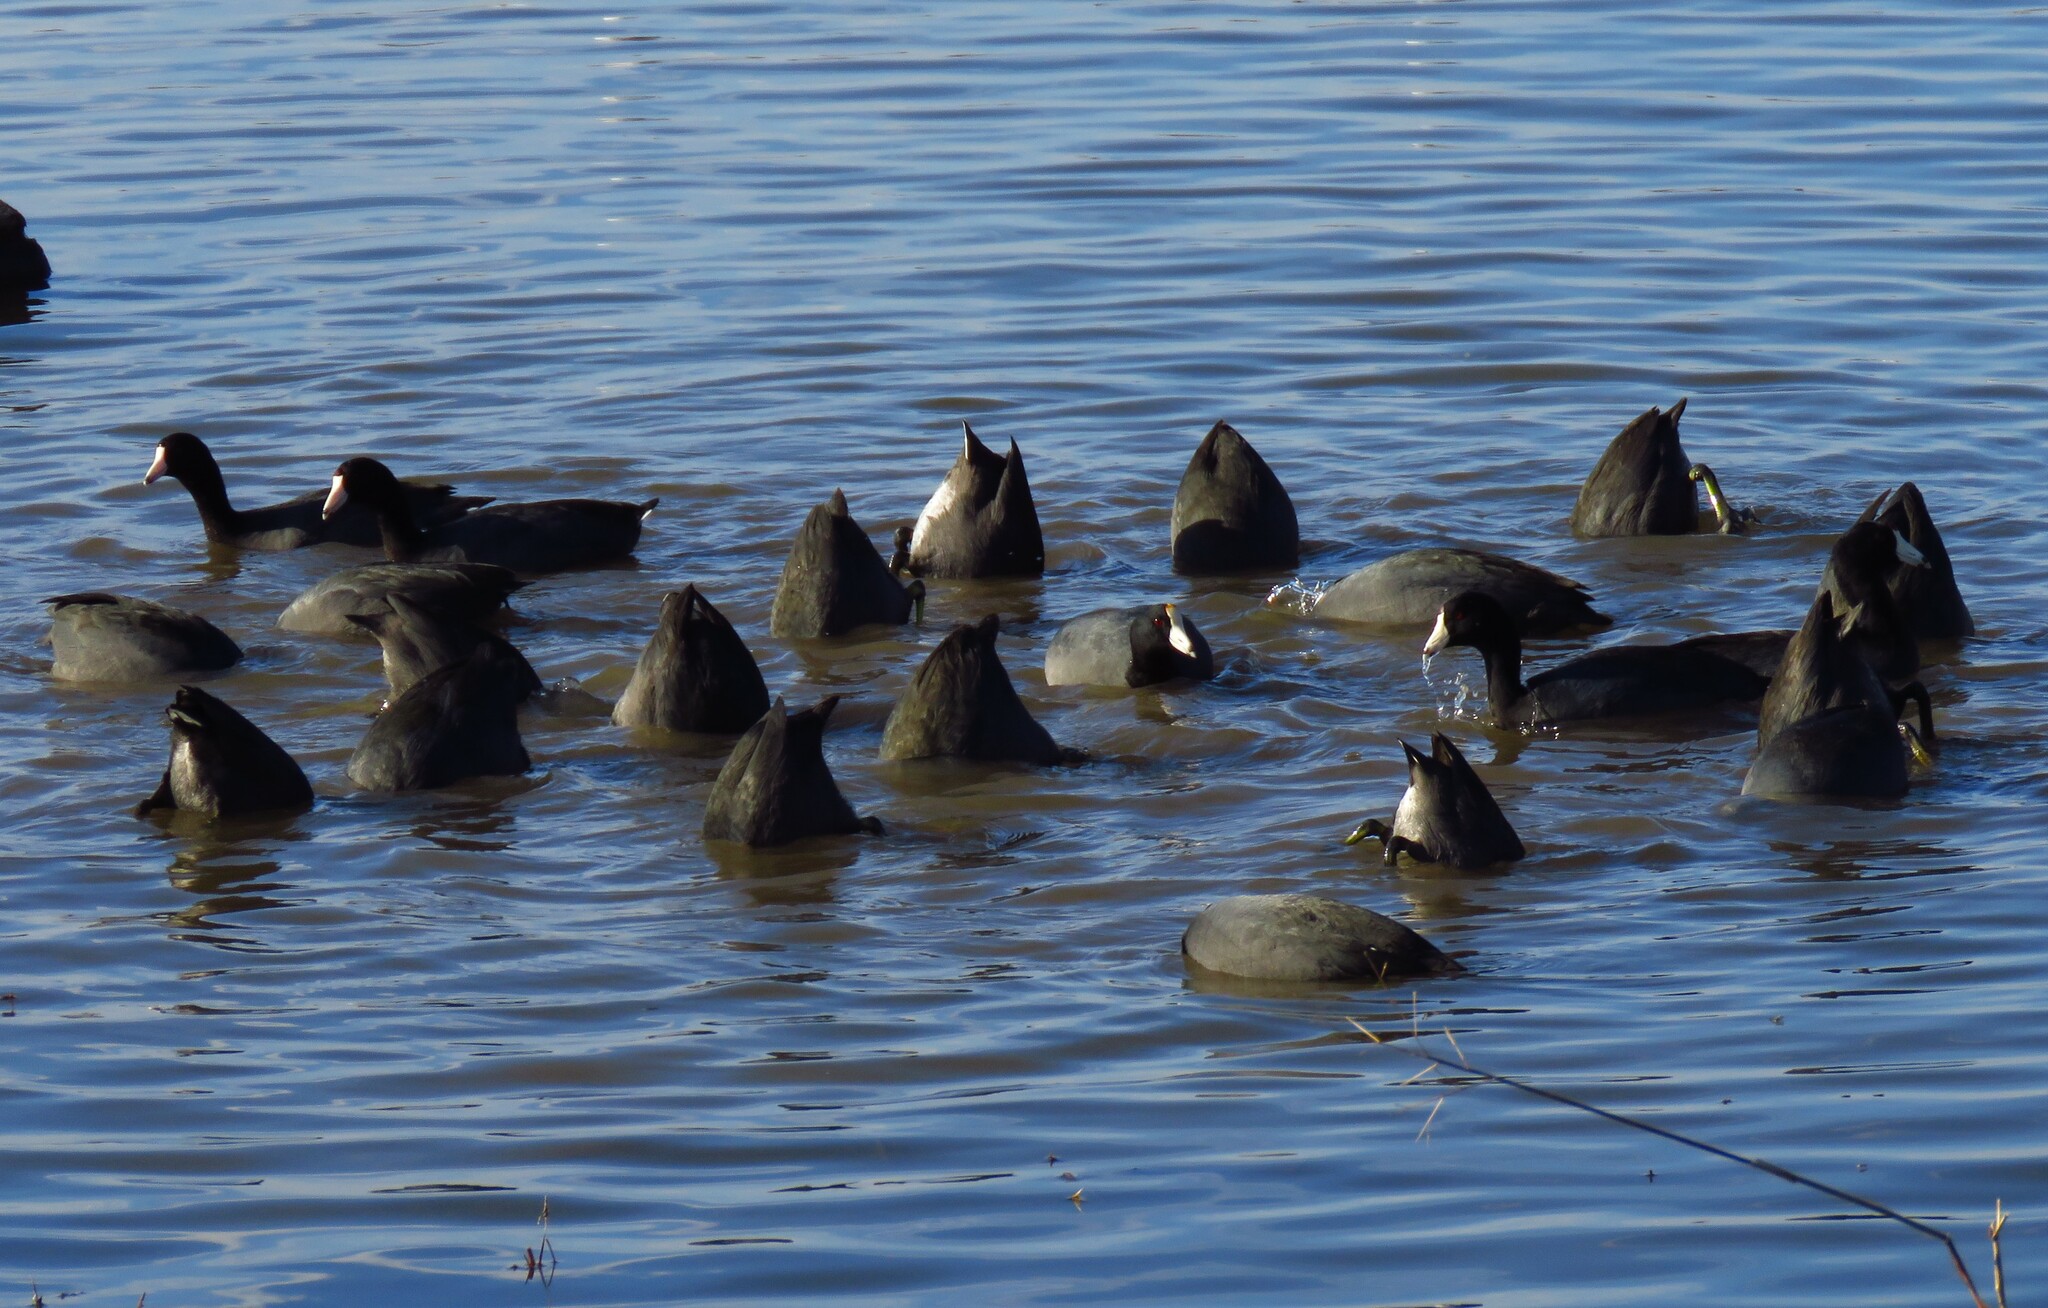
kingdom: Animalia
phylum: Chordata
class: Aves
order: Gruiformes
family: Rallidae
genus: Fulica
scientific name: Fulica americana
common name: American coot
